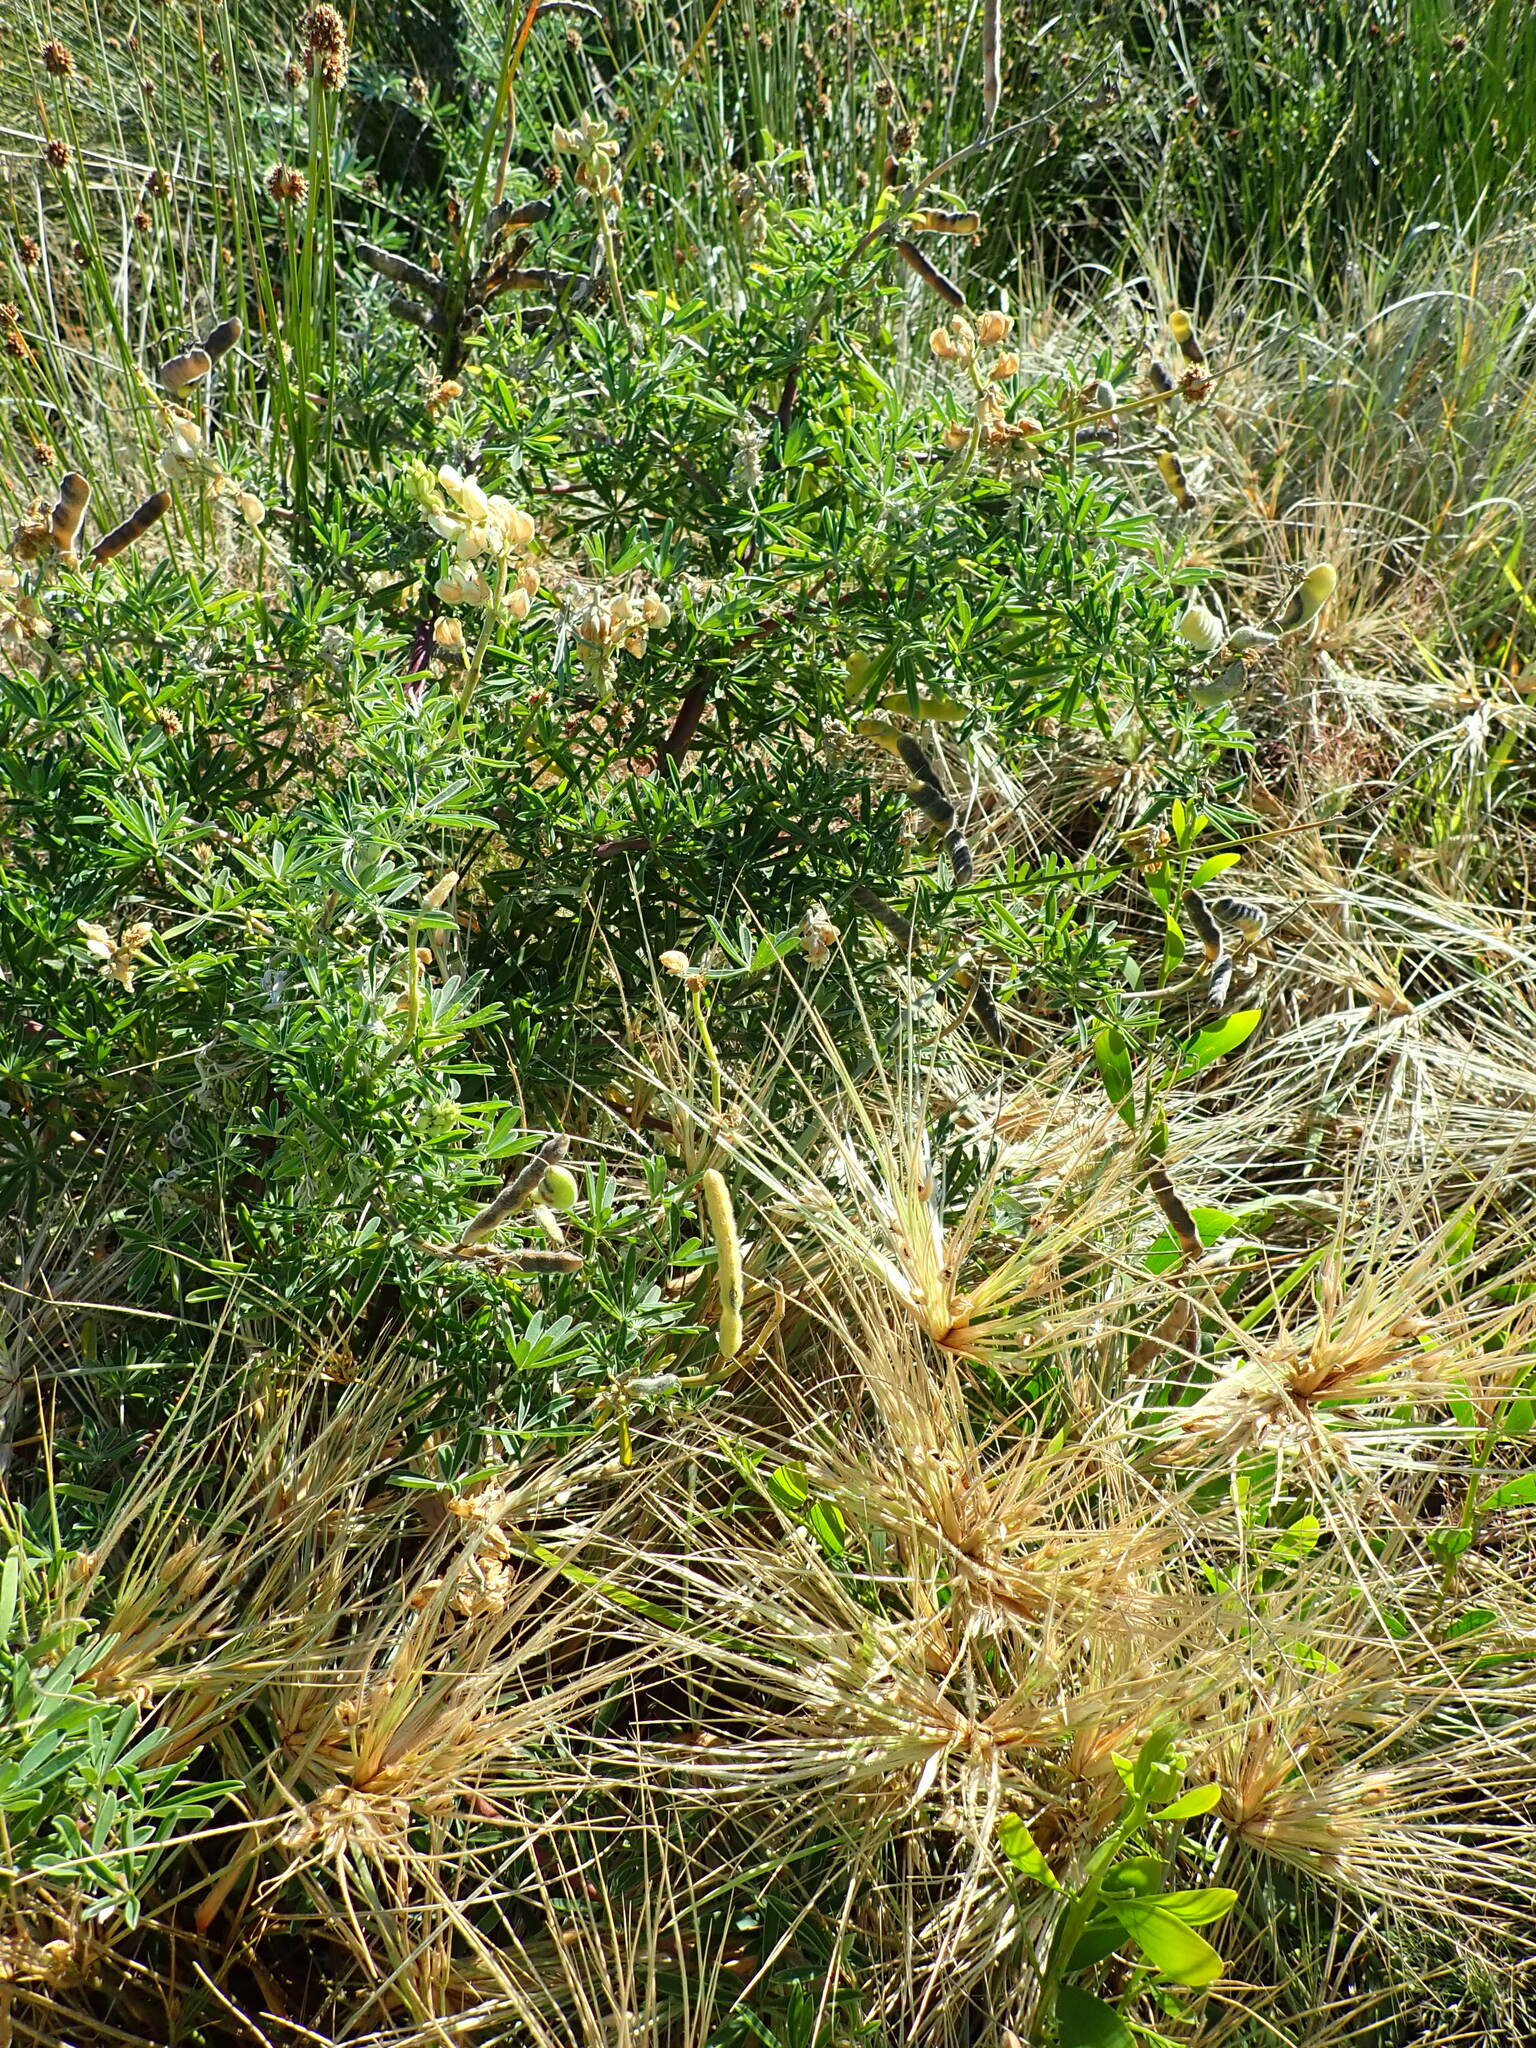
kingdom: Plantae
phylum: Tracheophyta
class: Magnoliopsida
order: Fabales
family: Fabaceae
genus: Lupinus
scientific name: Lupinus arboreus
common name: Yellow bush lupine
